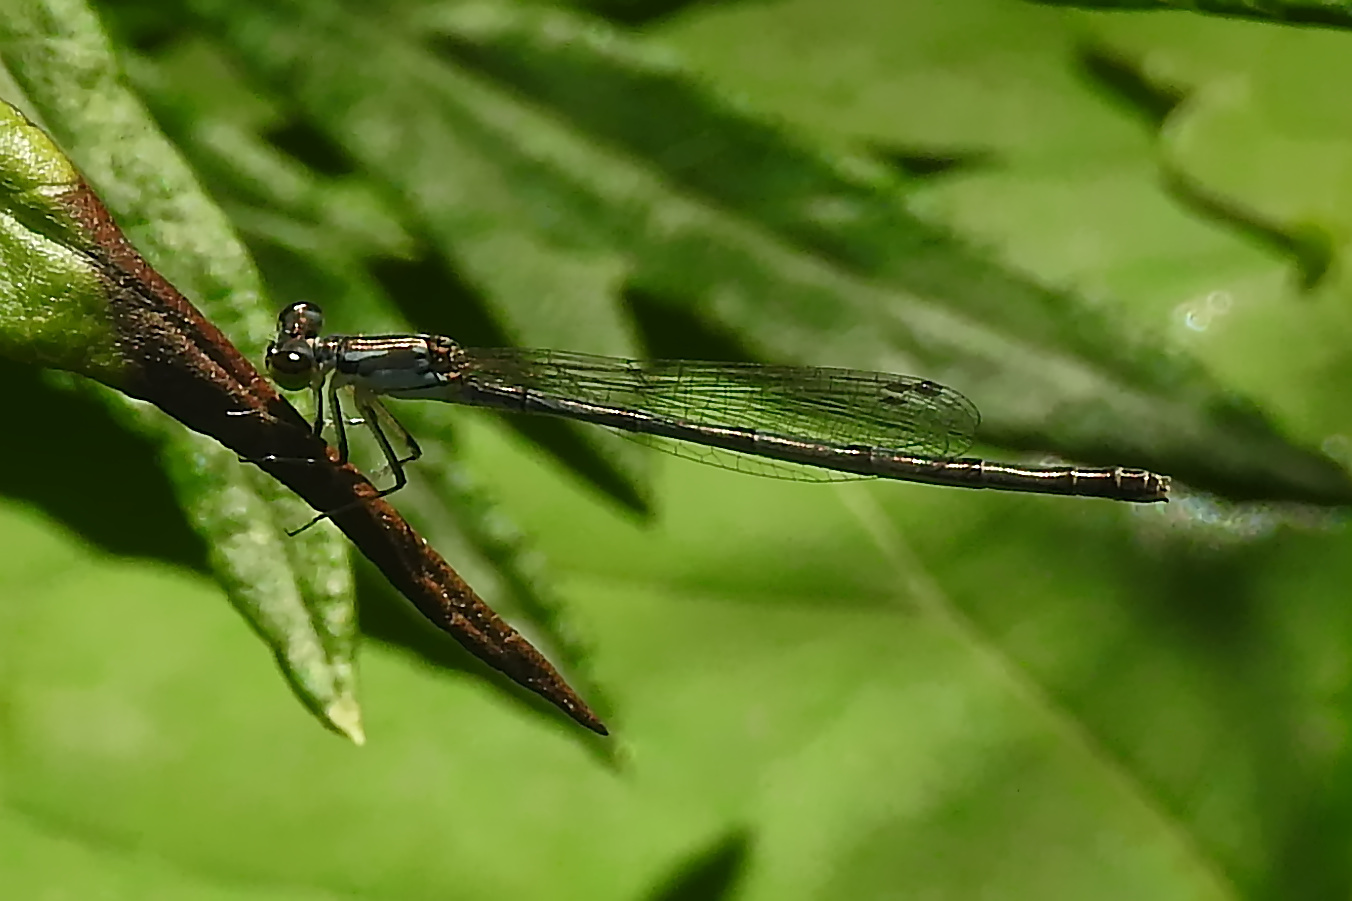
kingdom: Animalia
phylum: Arthropoda
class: Insecta
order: Odonata
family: Coenagrionidae
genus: Ischnura
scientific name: Ischnura posita
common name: Fragile forktail
